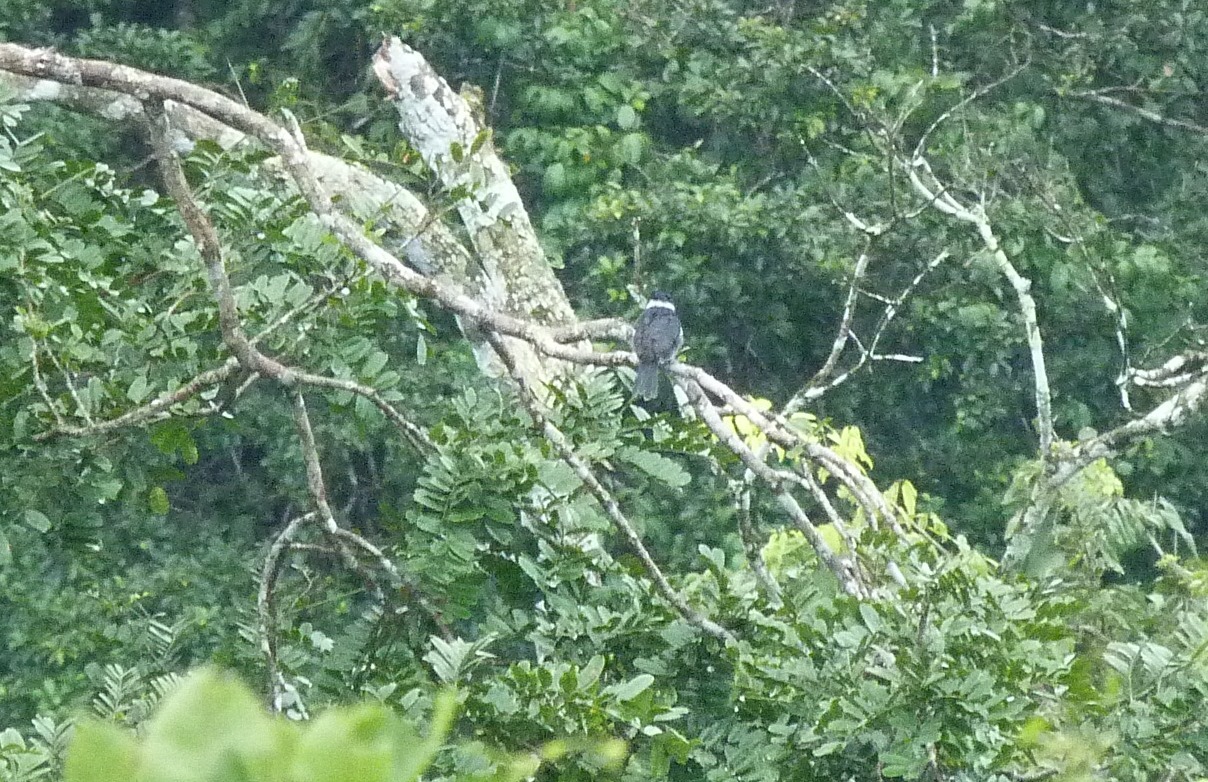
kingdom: Animalia
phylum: Chordata
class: Aves
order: Piciformes
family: Bucconidae
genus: Notharchus
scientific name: Notharchus pectoralis
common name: Black-breasted puffbird
